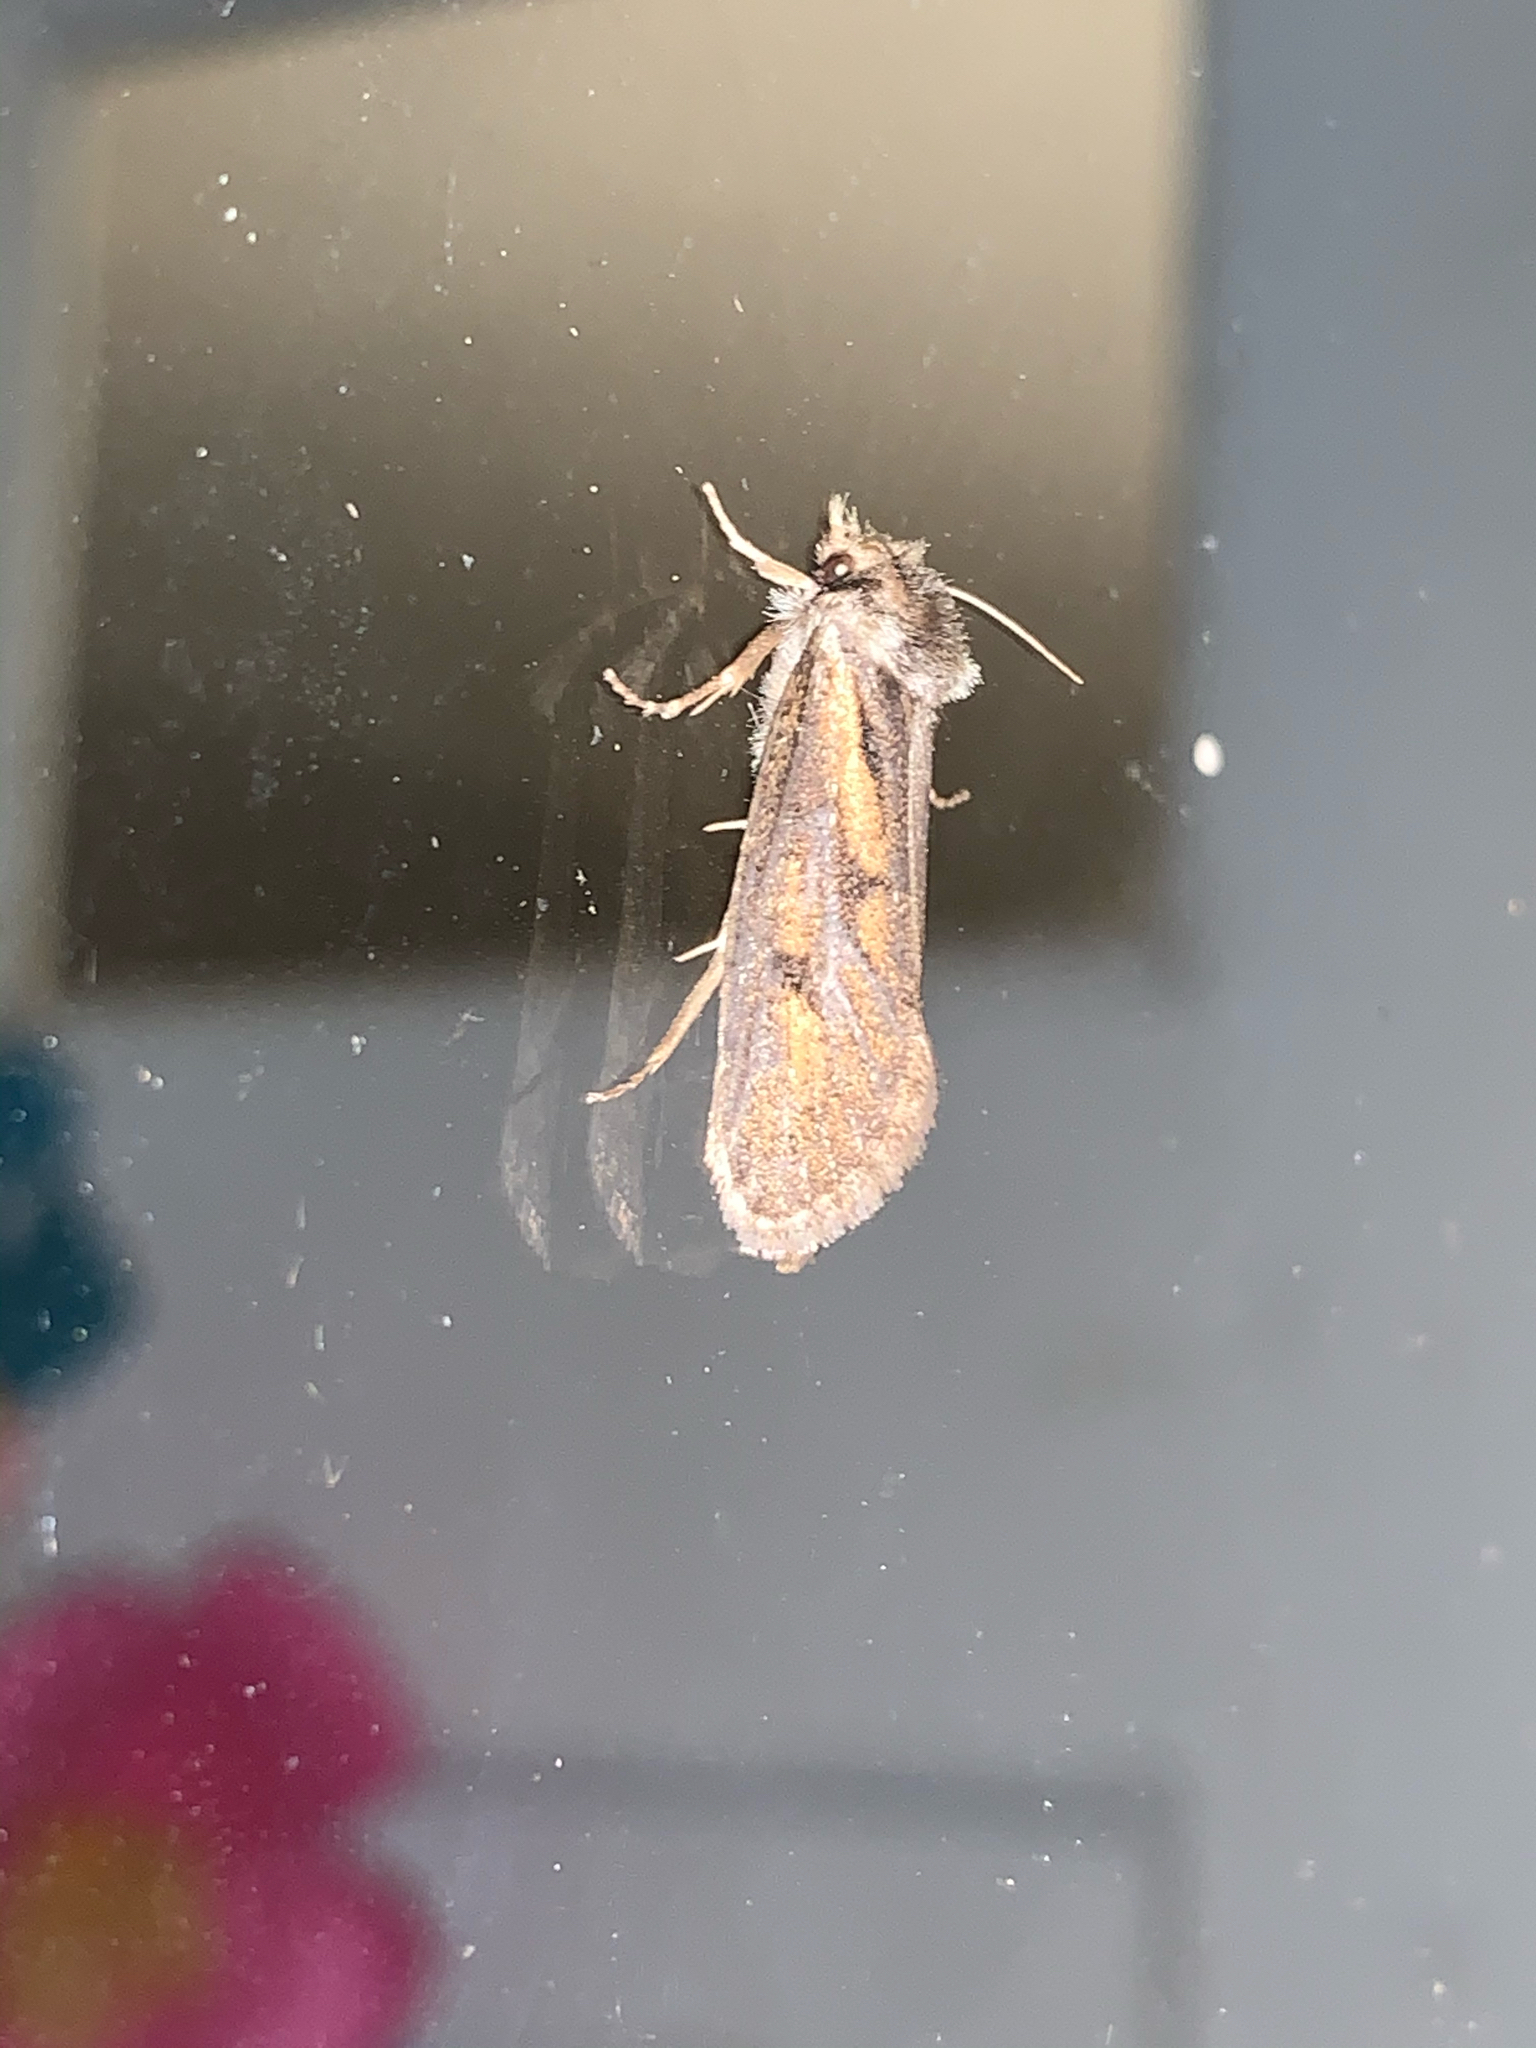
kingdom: Animalia
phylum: Arthropoda
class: Insecta
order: Lepidoptera
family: Tineidae
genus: Acrolophus
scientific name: Acrolophus popeanella
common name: Clemens' grass tubeworm moth
